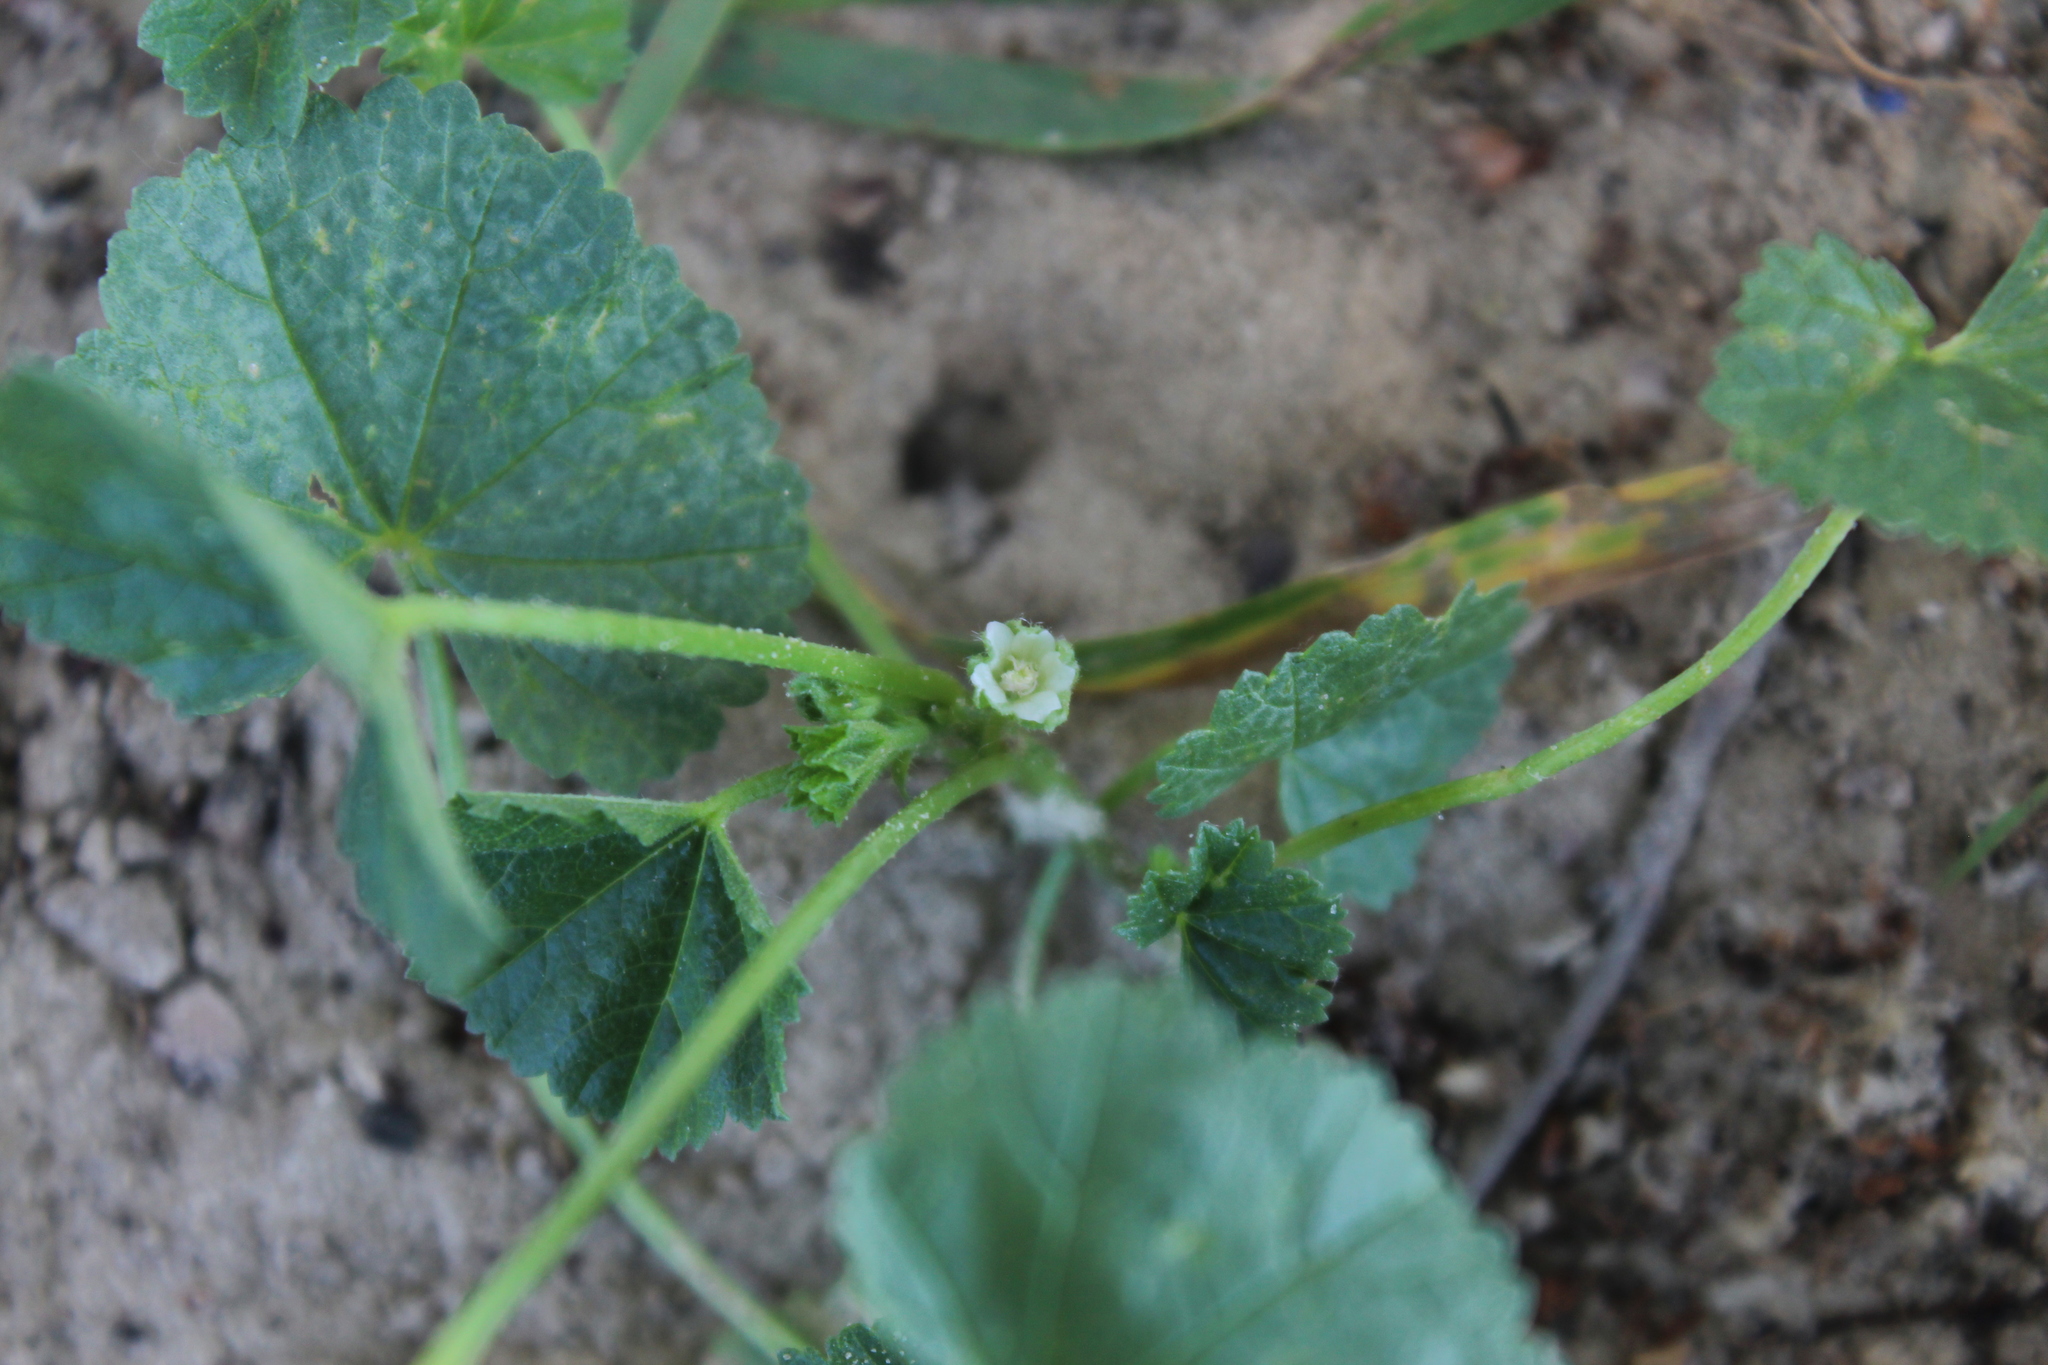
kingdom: Plantae
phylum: Tracheophyta
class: Magnoliopsida
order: Malvales
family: Malvaceae
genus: Malva
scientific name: Malva pusilla
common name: Small mallow
